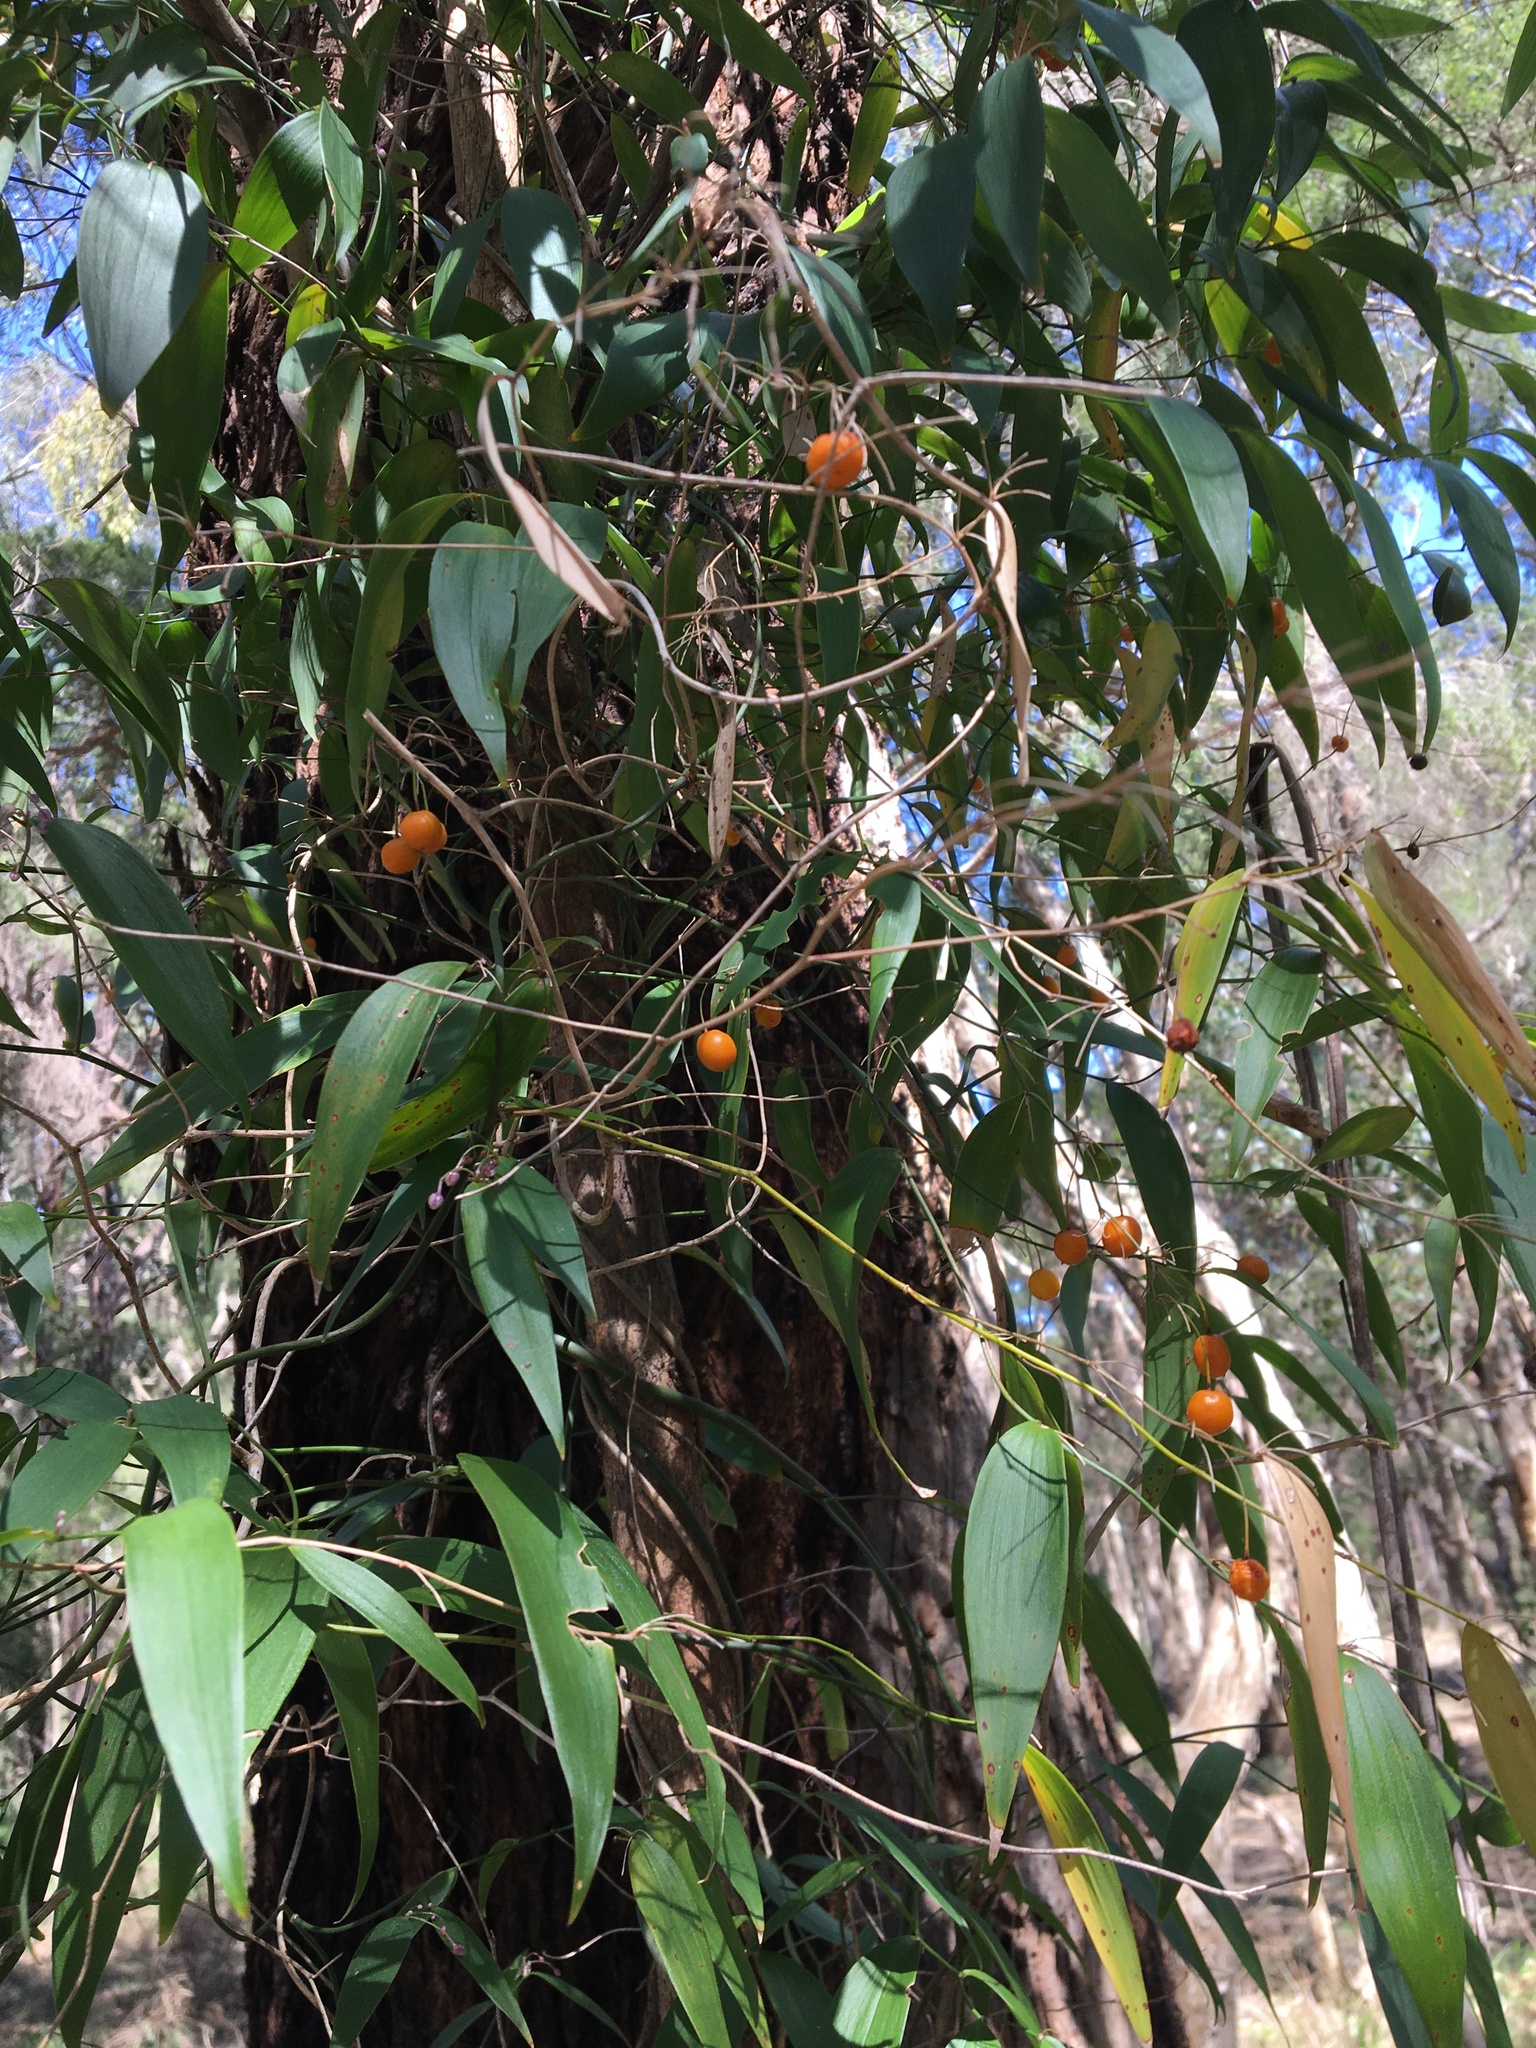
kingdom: Plantae
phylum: Tracheophyta
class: Liliopsida
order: Asparagales
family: Asparagaceae
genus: Eustrephus
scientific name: Eustrephus latifolius
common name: Orangevine
